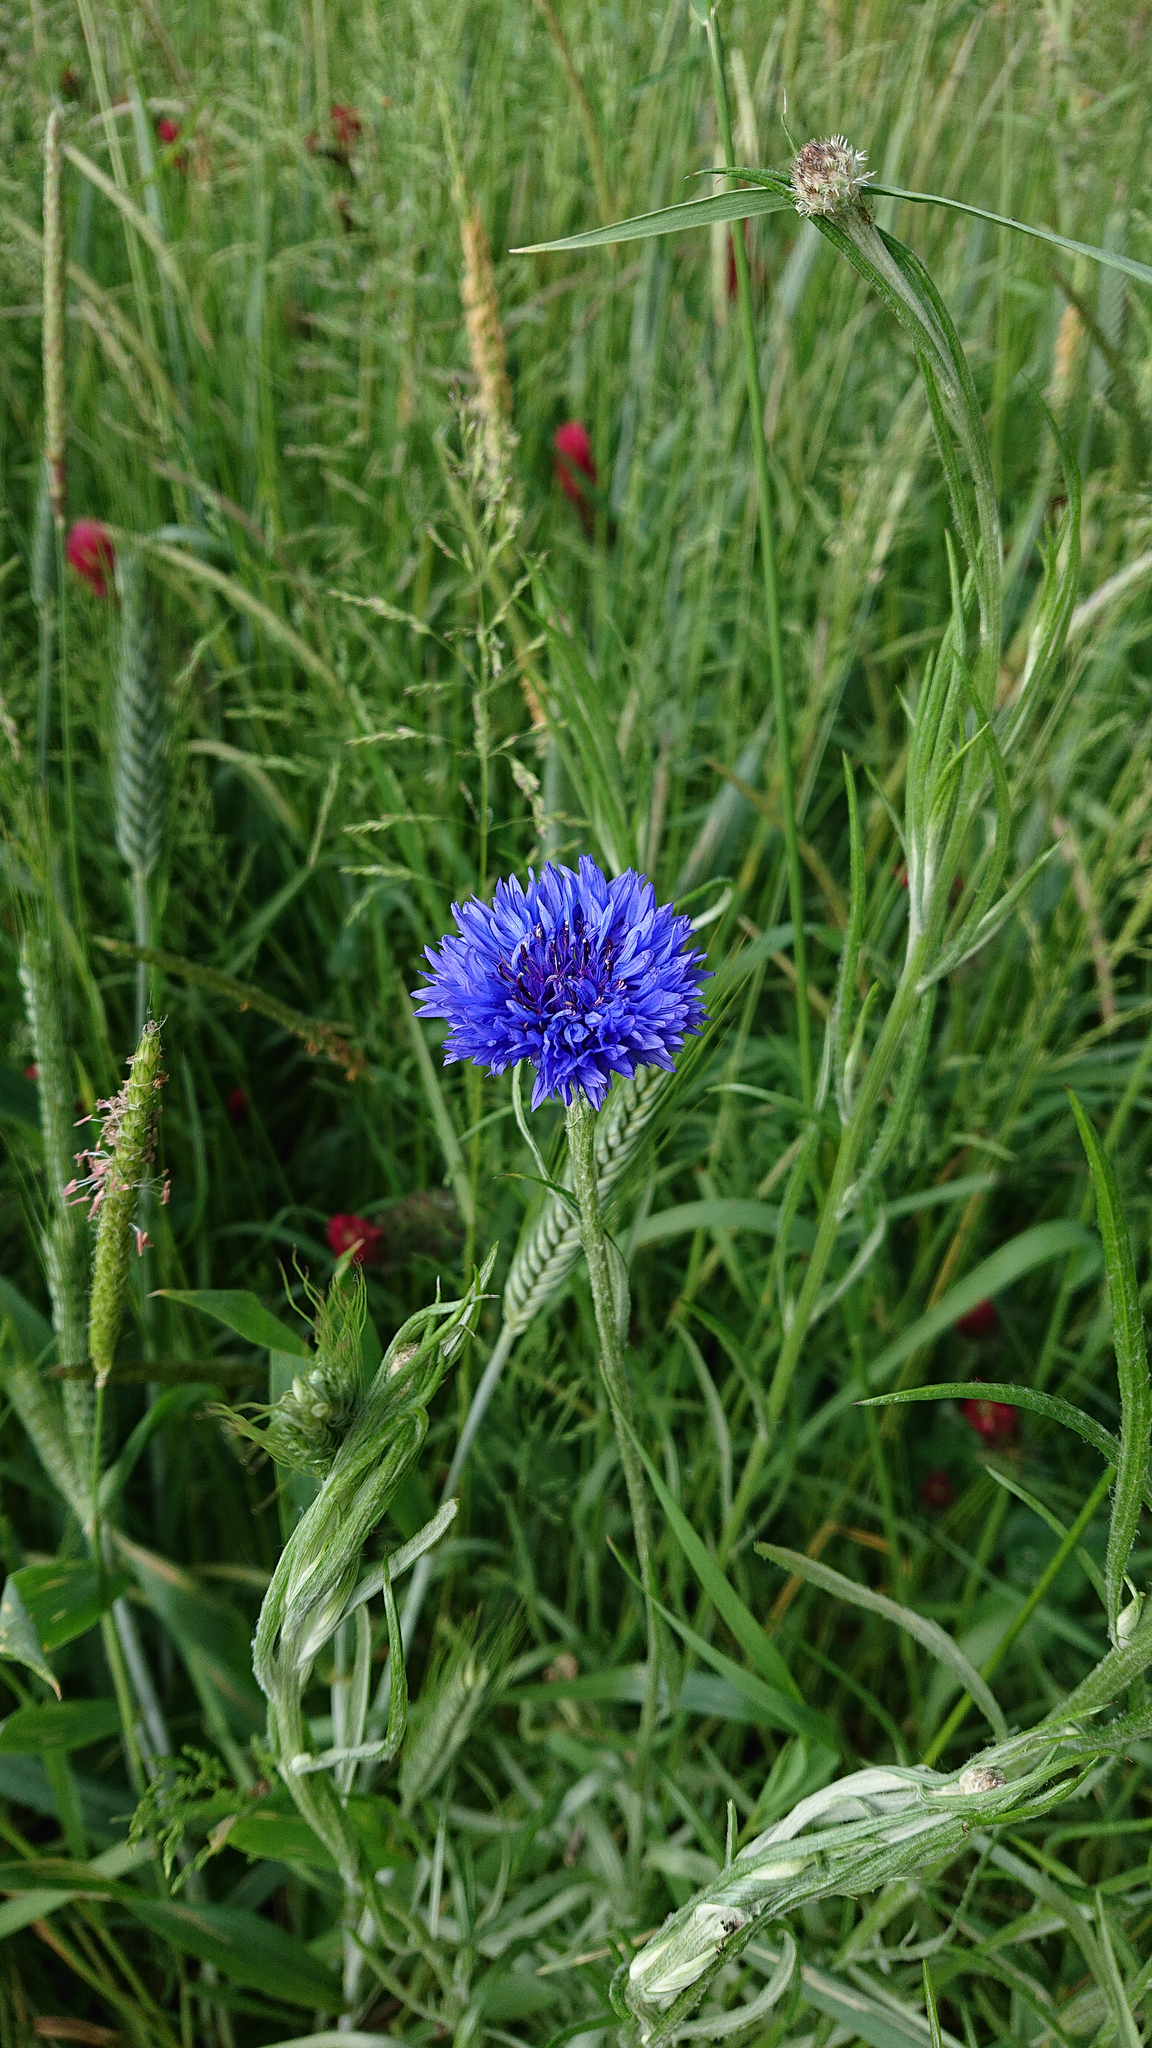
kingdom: Plantae
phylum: Tracheophyta
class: Magnoliopsida
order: Asterales
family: Asteraceae
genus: Centaurea
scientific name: Centaurea cyanus
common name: Cornflower
